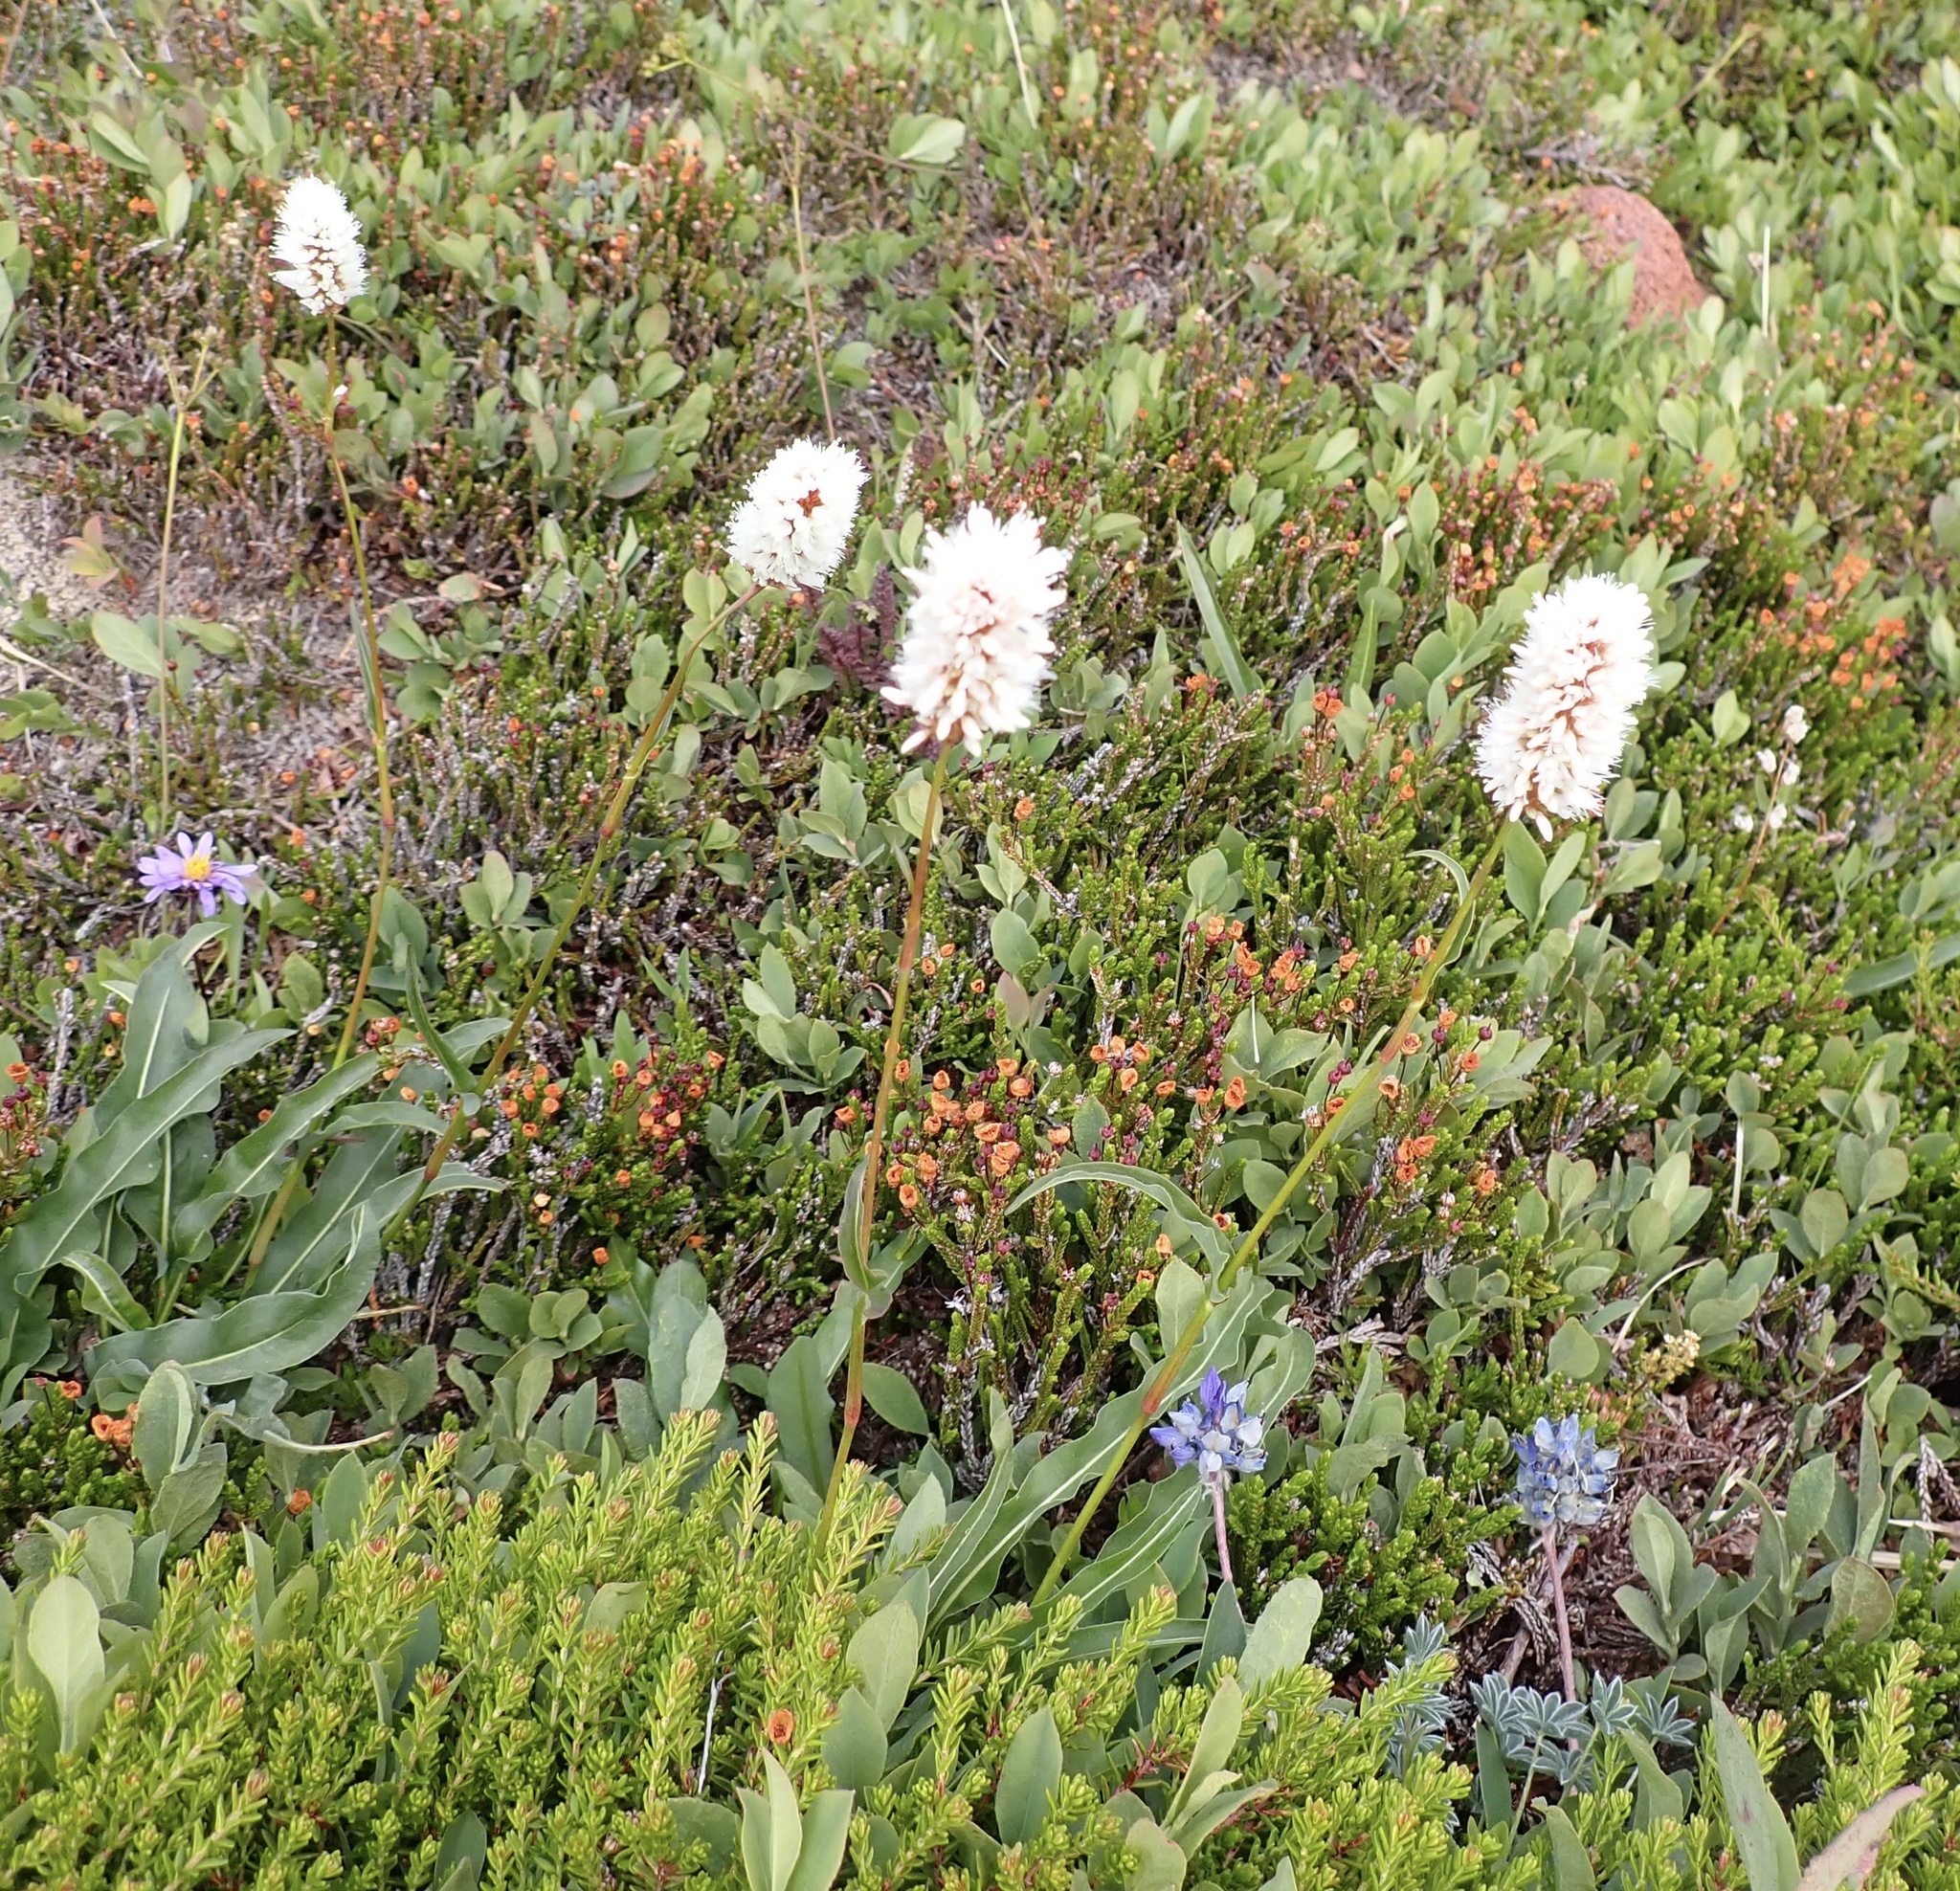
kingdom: Plantae
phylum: Tracheophyta
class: Magnoliopsida
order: Caryophyllales
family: Polygonaceae
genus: Bistorta
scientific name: Bistorta bistortoides
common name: American bistort
